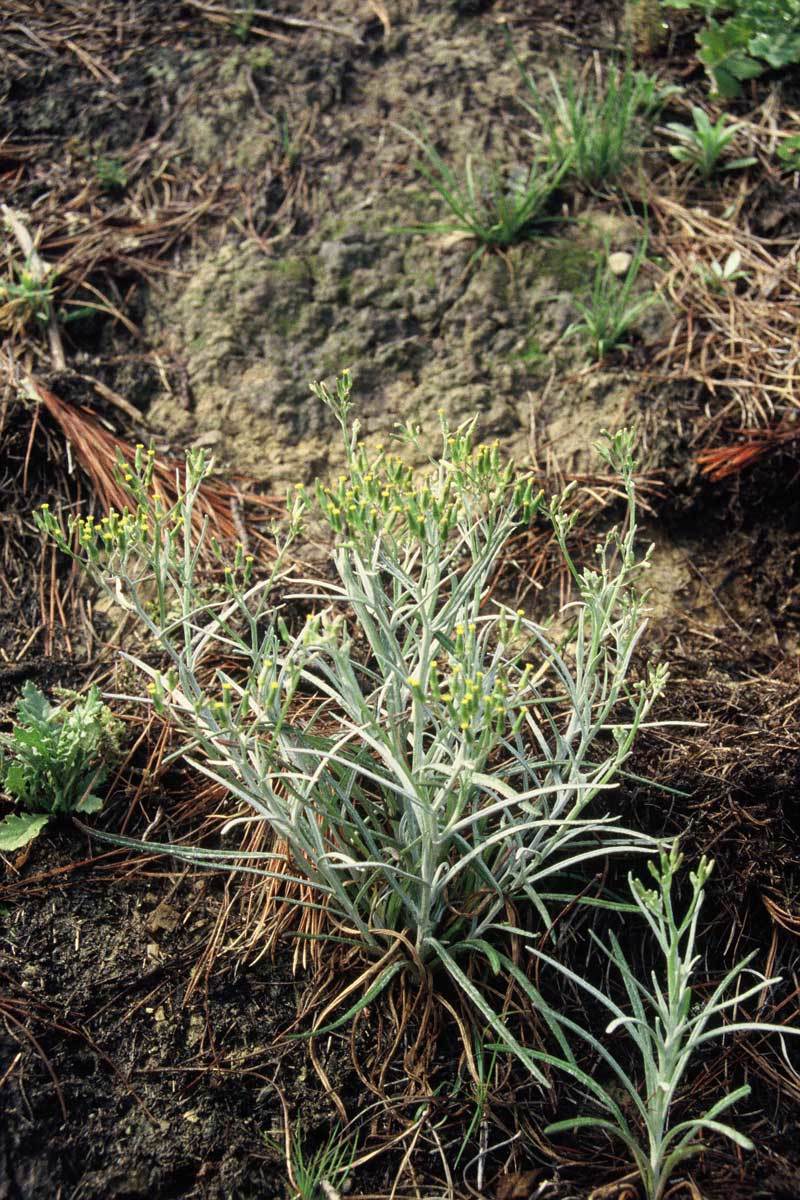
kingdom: Plantae
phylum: Tracheophyta
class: Magnoliopsida
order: Asterales
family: Asteraceae
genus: Senecio
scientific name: Senecio quadridentatus
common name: Cotton fireweed
